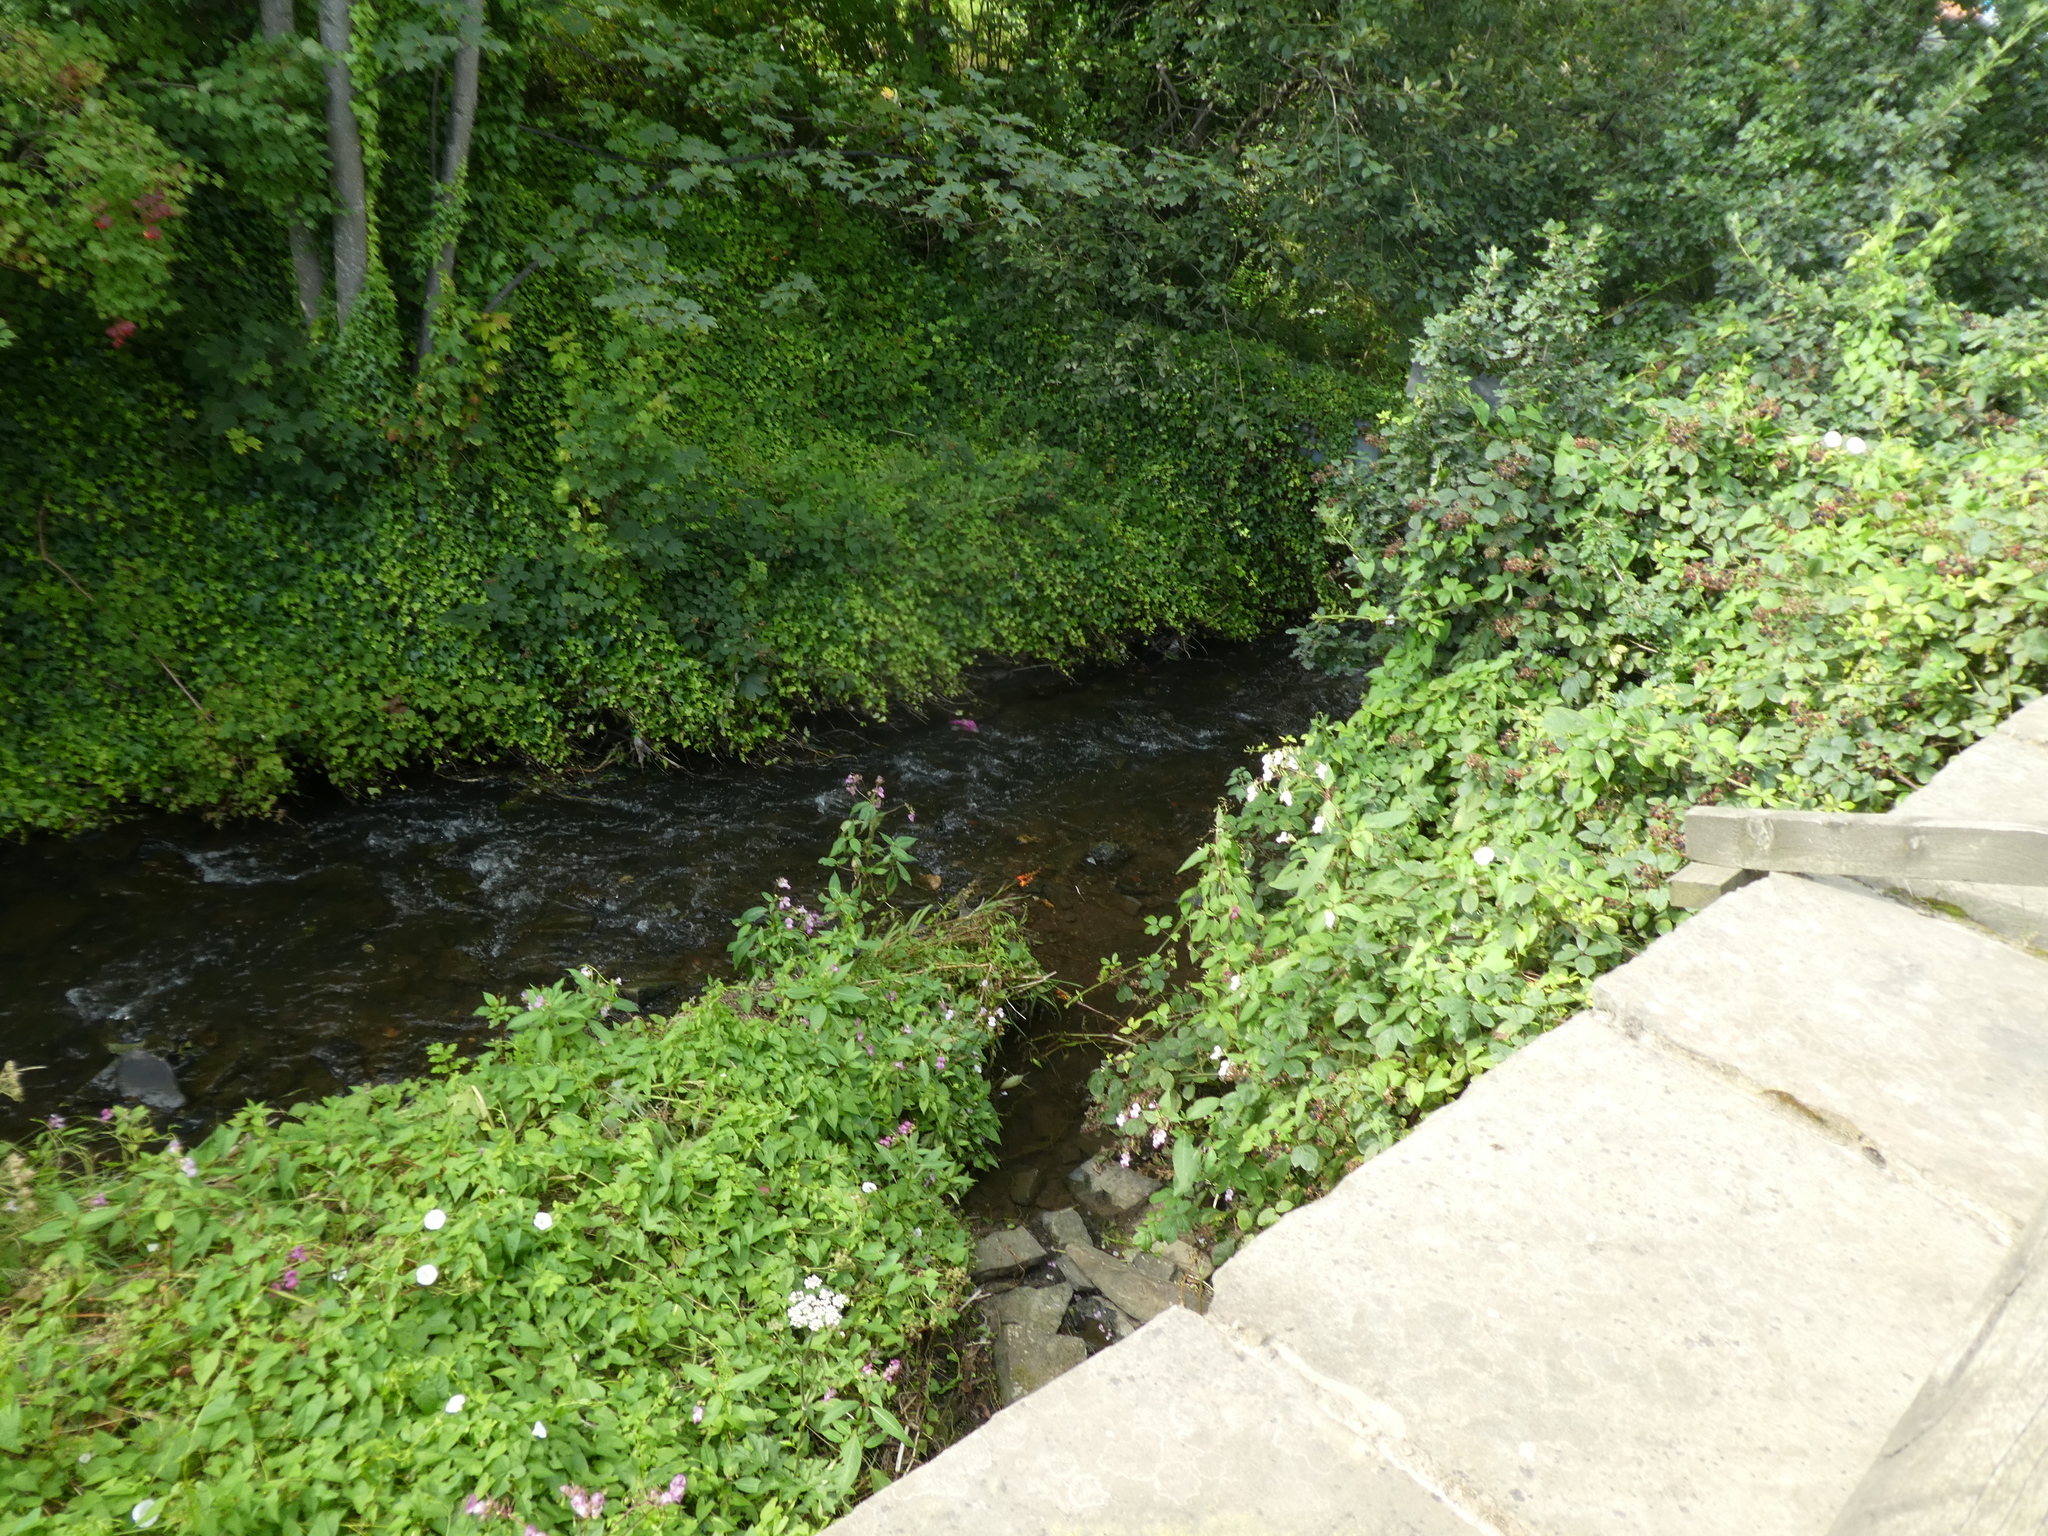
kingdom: Plantae
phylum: Tracheophyta
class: Liliopsida
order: Asparagales
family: Iridaceae
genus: Crocosmia
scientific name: Crocosmia crocosmiiflora
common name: Montbretia
